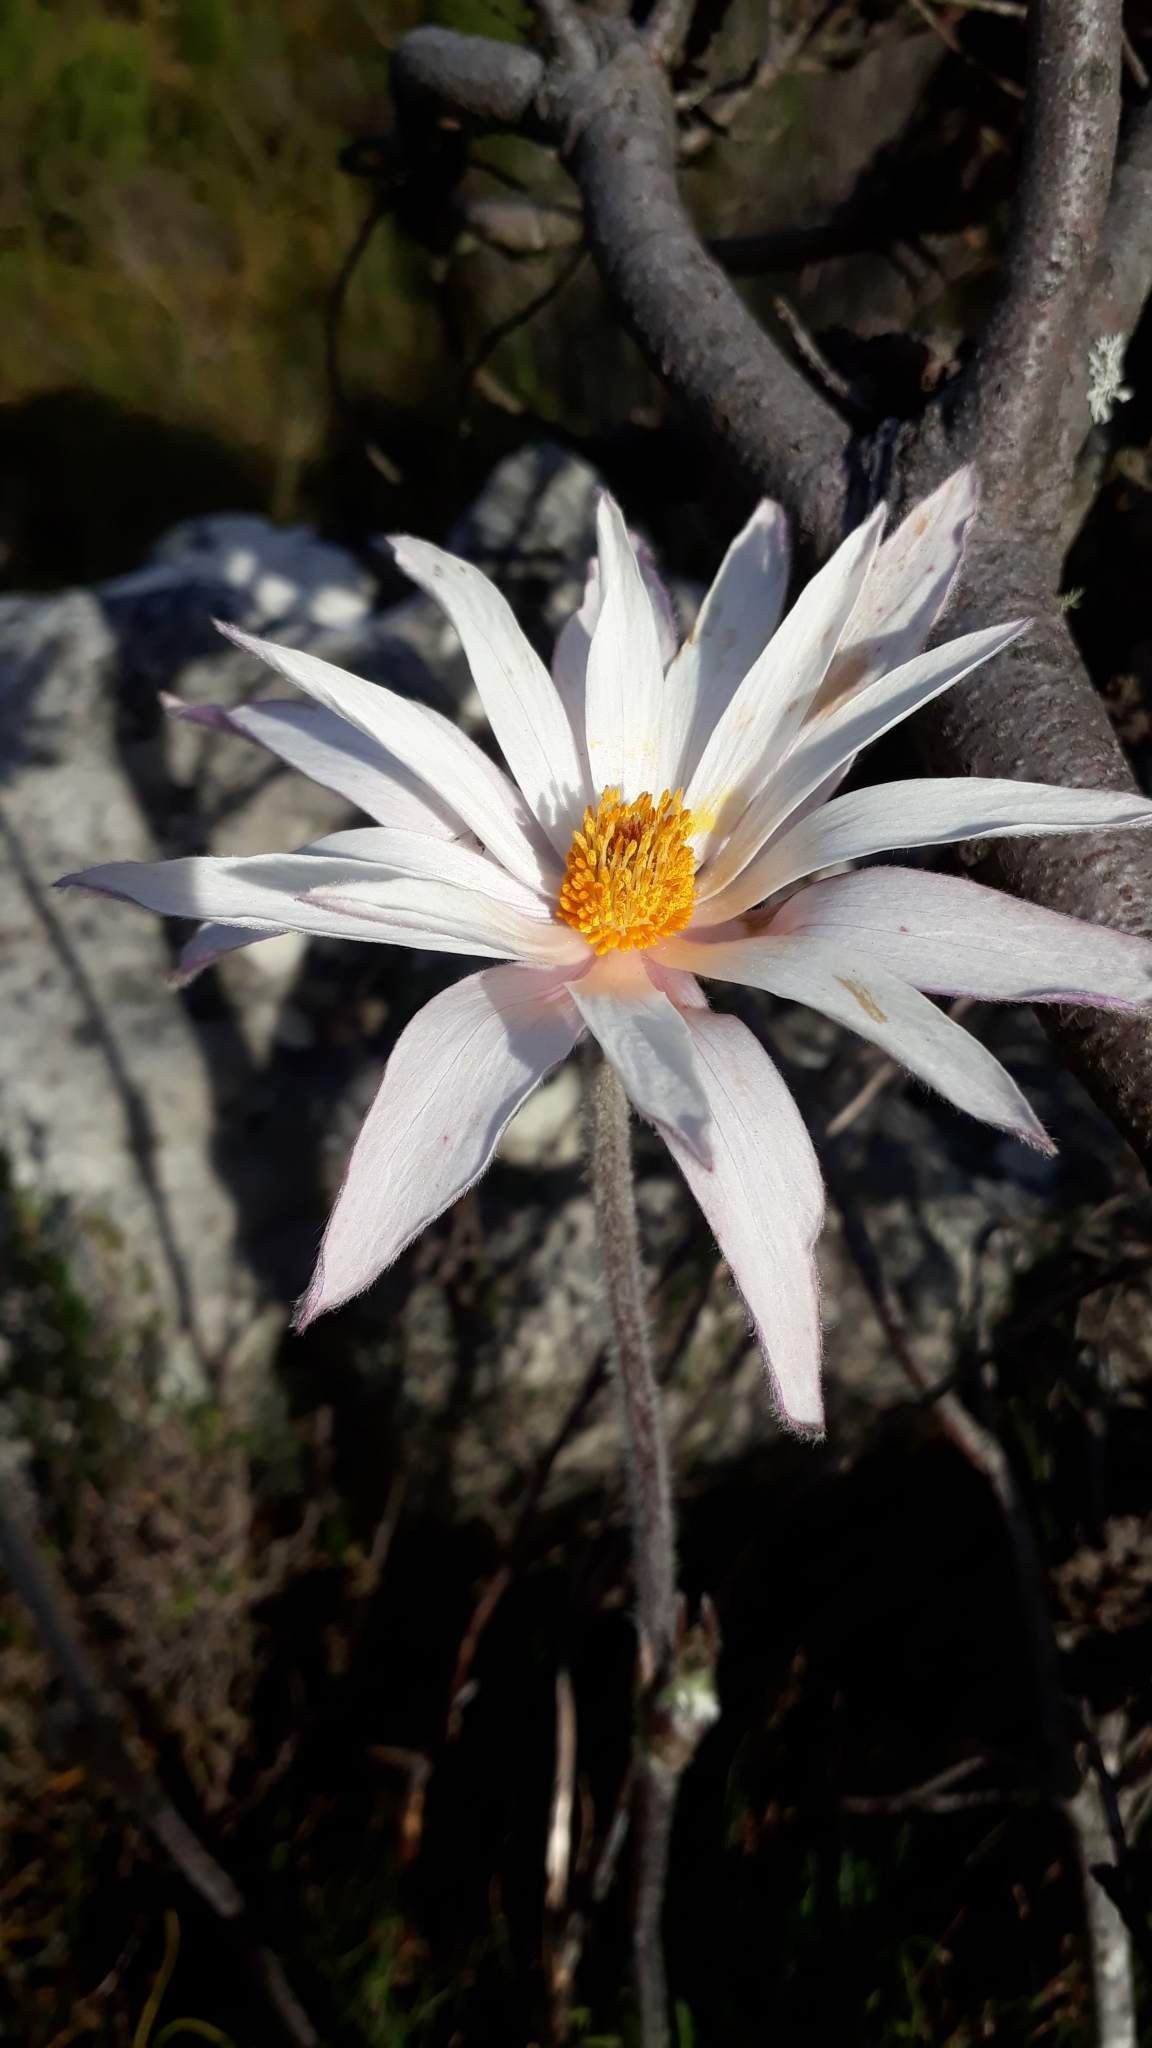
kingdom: Plantae
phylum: Tracheophyta
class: Magnoliopsida
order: Ranunculales
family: Ranunculaceae
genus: Knowltonia
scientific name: Knowltonia tenuifolia
